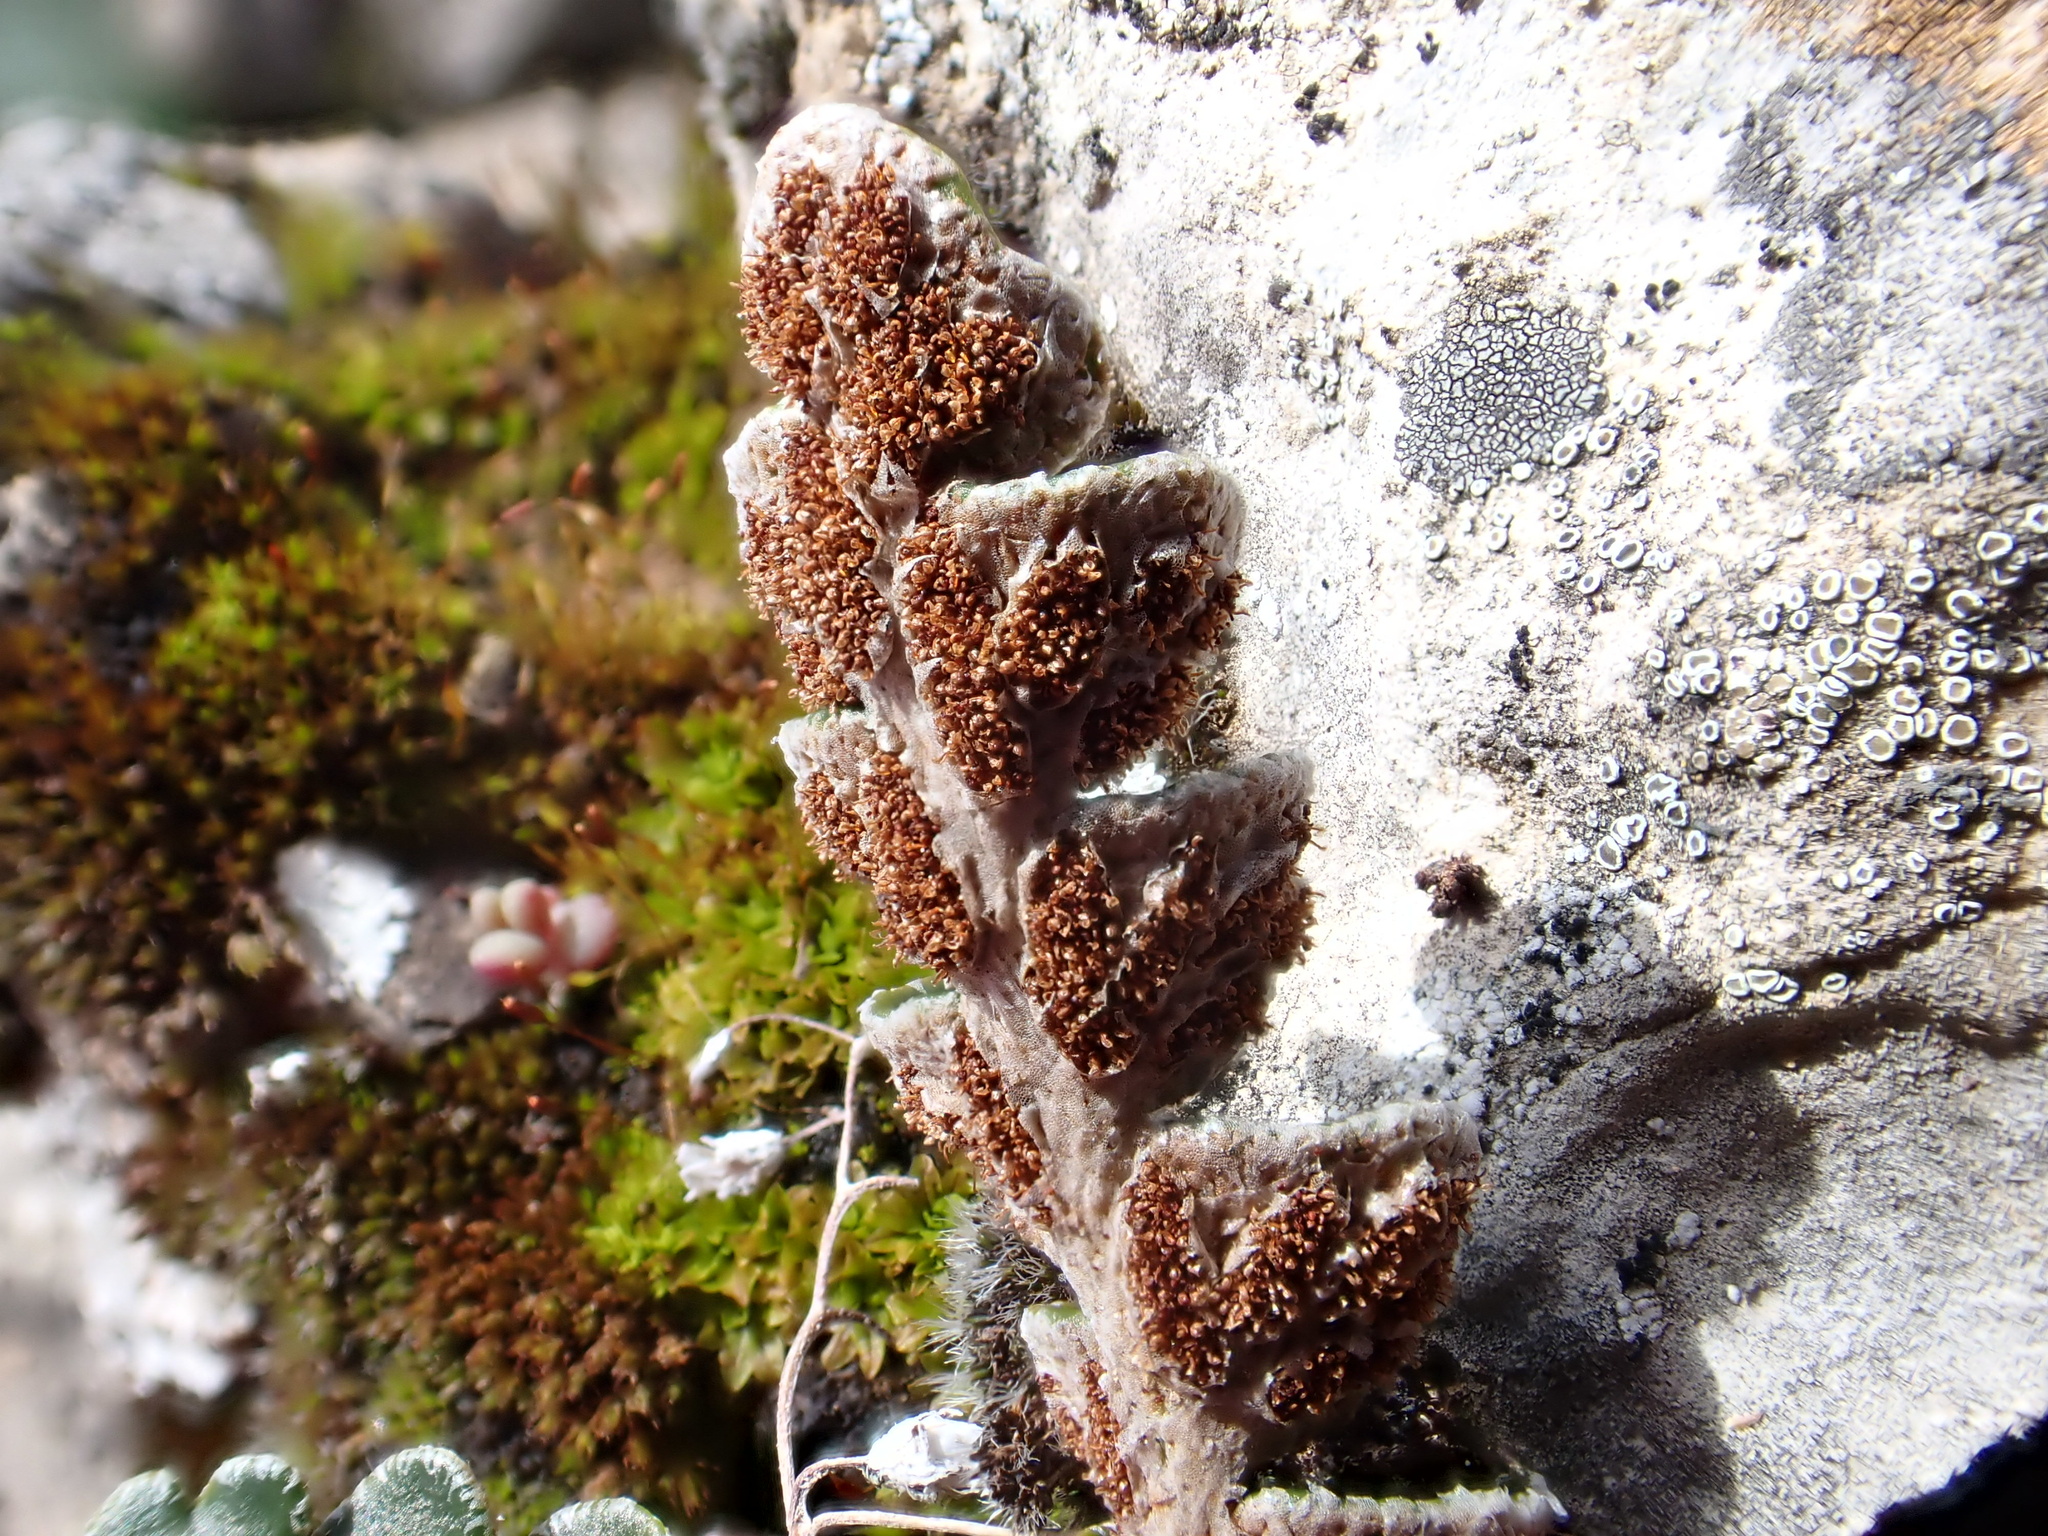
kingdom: Plantae
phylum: Tracheophyta
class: Polypodiopsida
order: Polypodiales
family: Aspleniaceae
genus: Asplenium
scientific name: Asplenium ceterach
